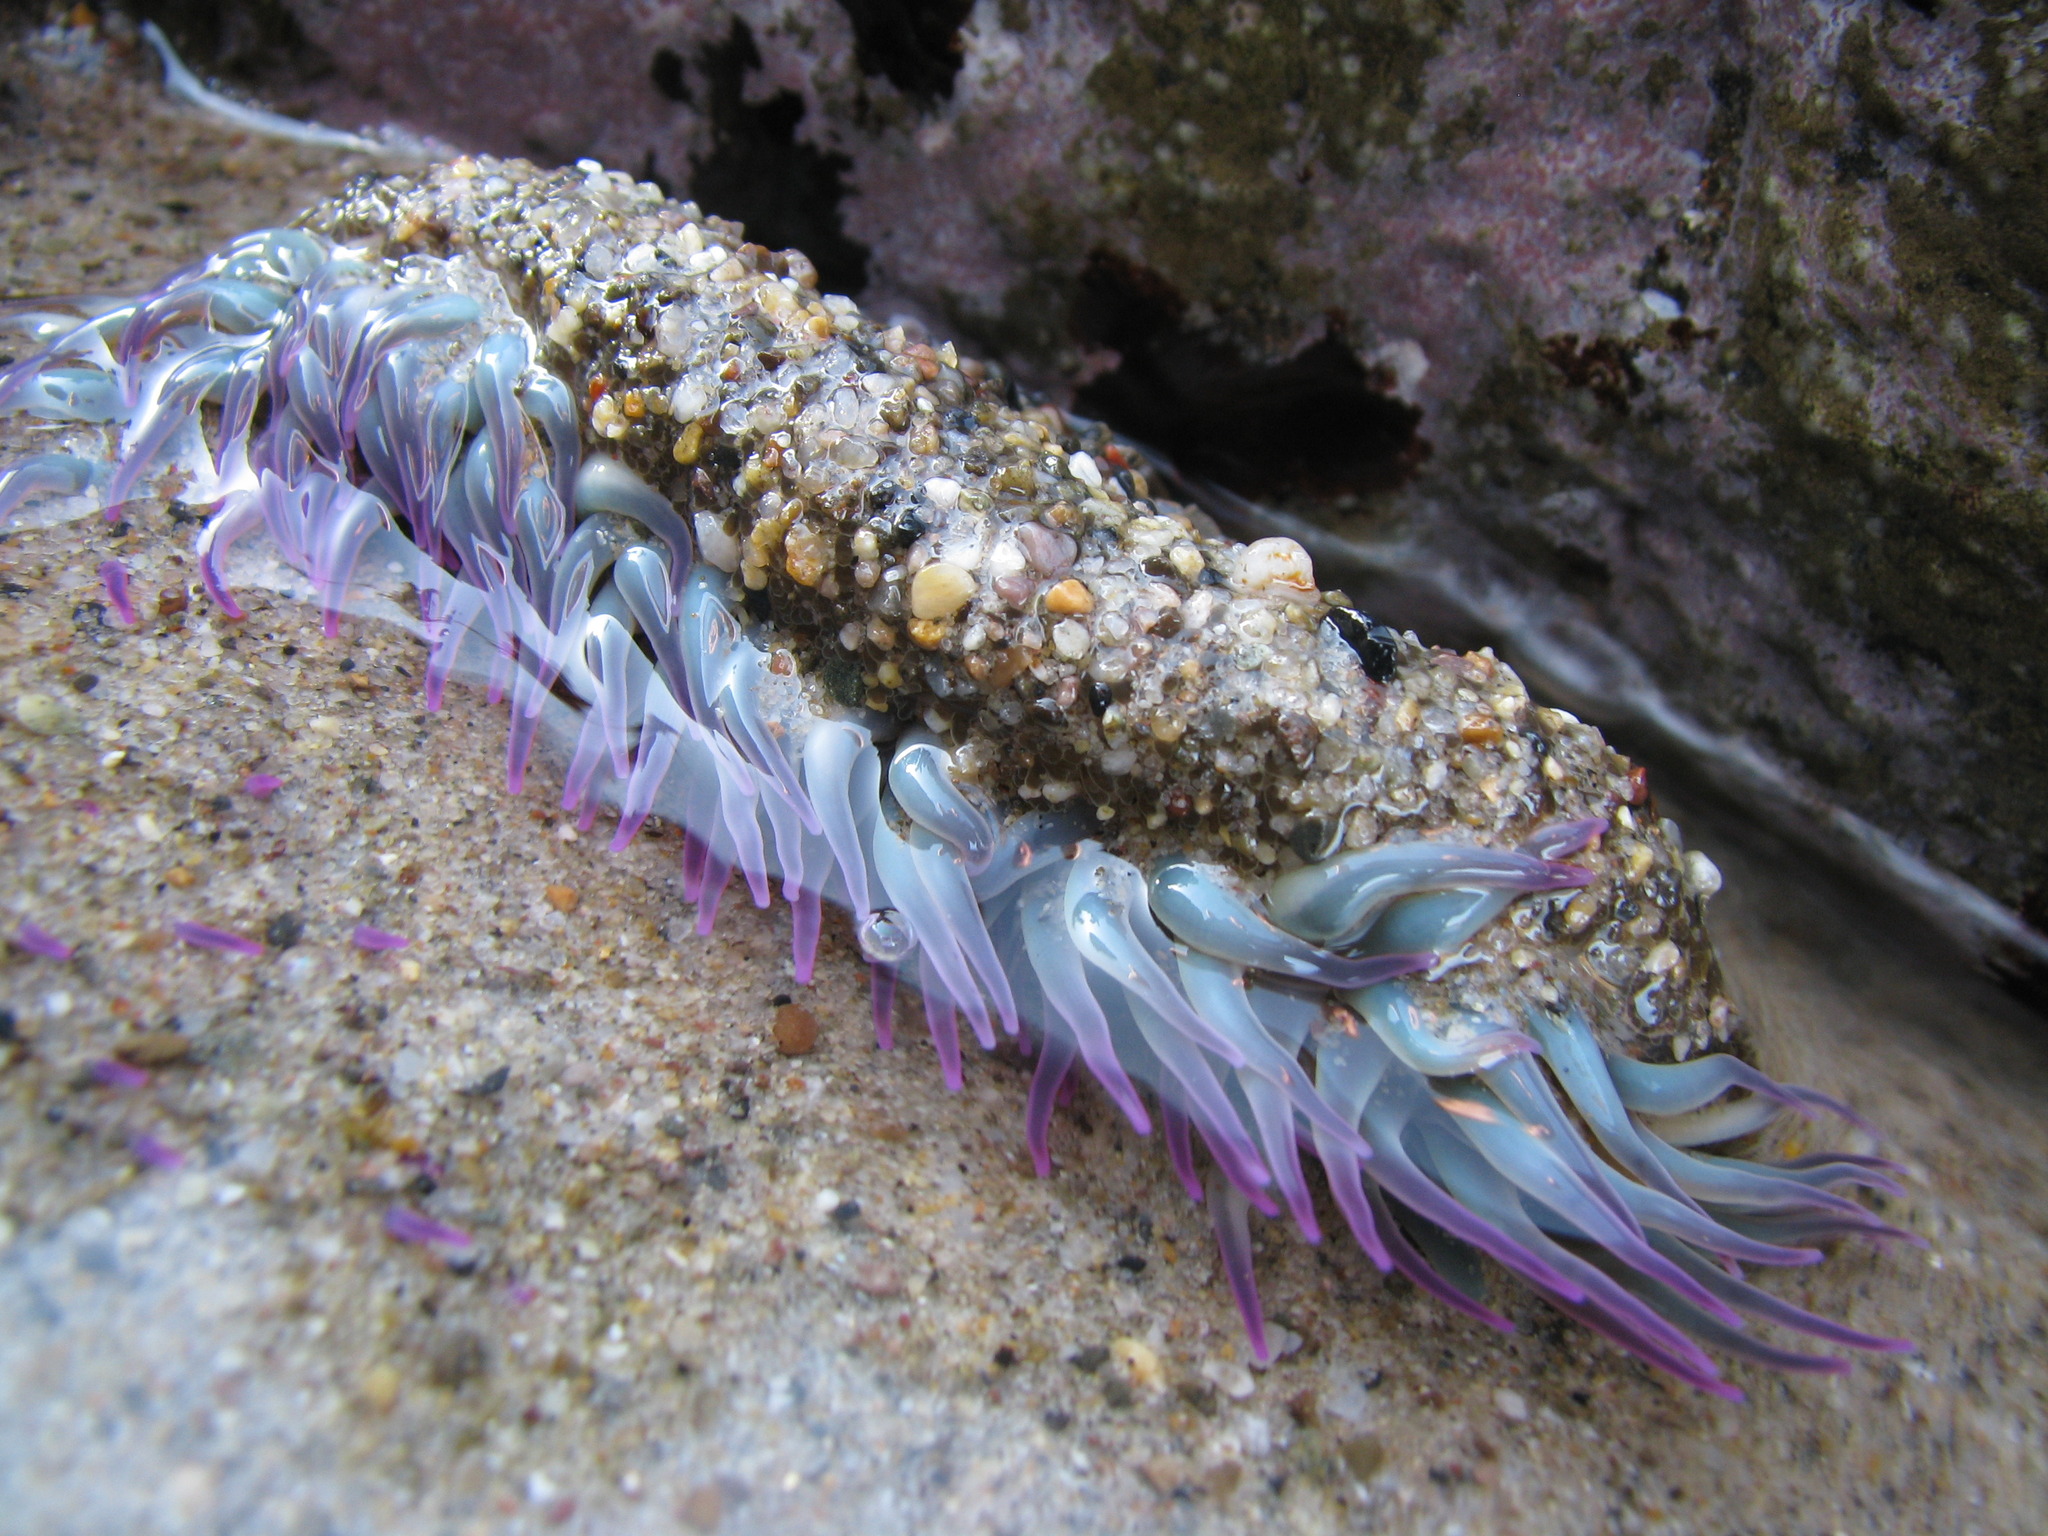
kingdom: Animalia
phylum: Cnidaria
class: Anthozoa
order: Actiniaria
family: Actiniidae
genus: Anthopleura
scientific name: Anthopleura
